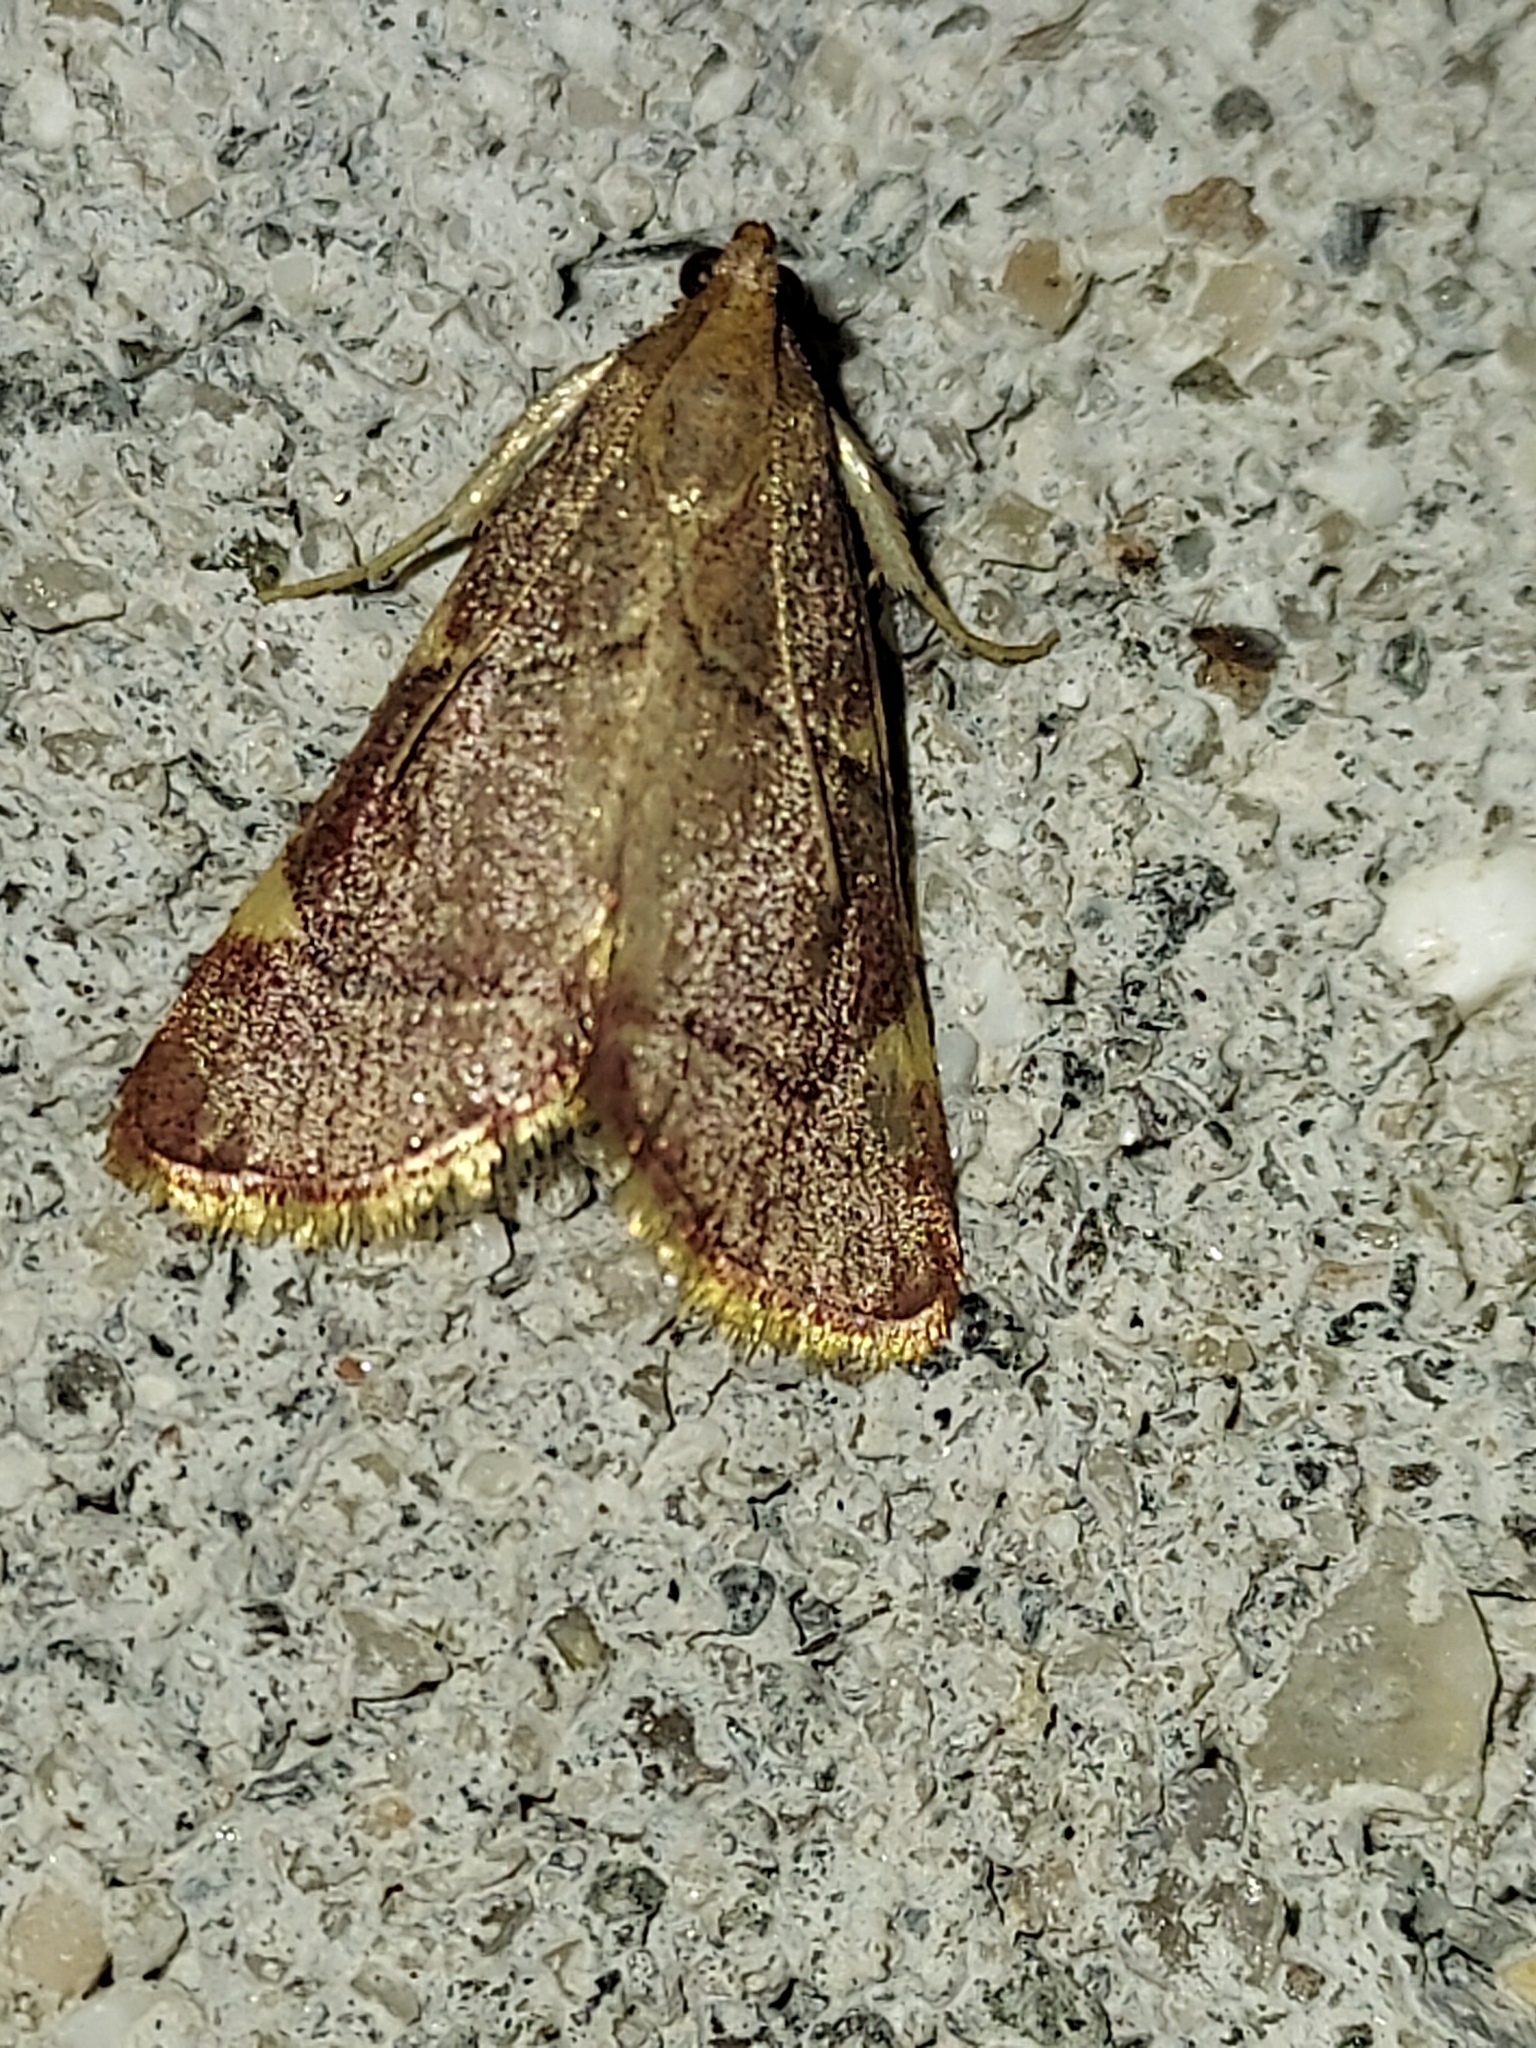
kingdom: Animalia
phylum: Arthropoda
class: Insecta
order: Lepidoptera
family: Pyralidae
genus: Hypsopygia
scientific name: Hypsopygia olinalis
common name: Yellow-fringed dolichomia moth
